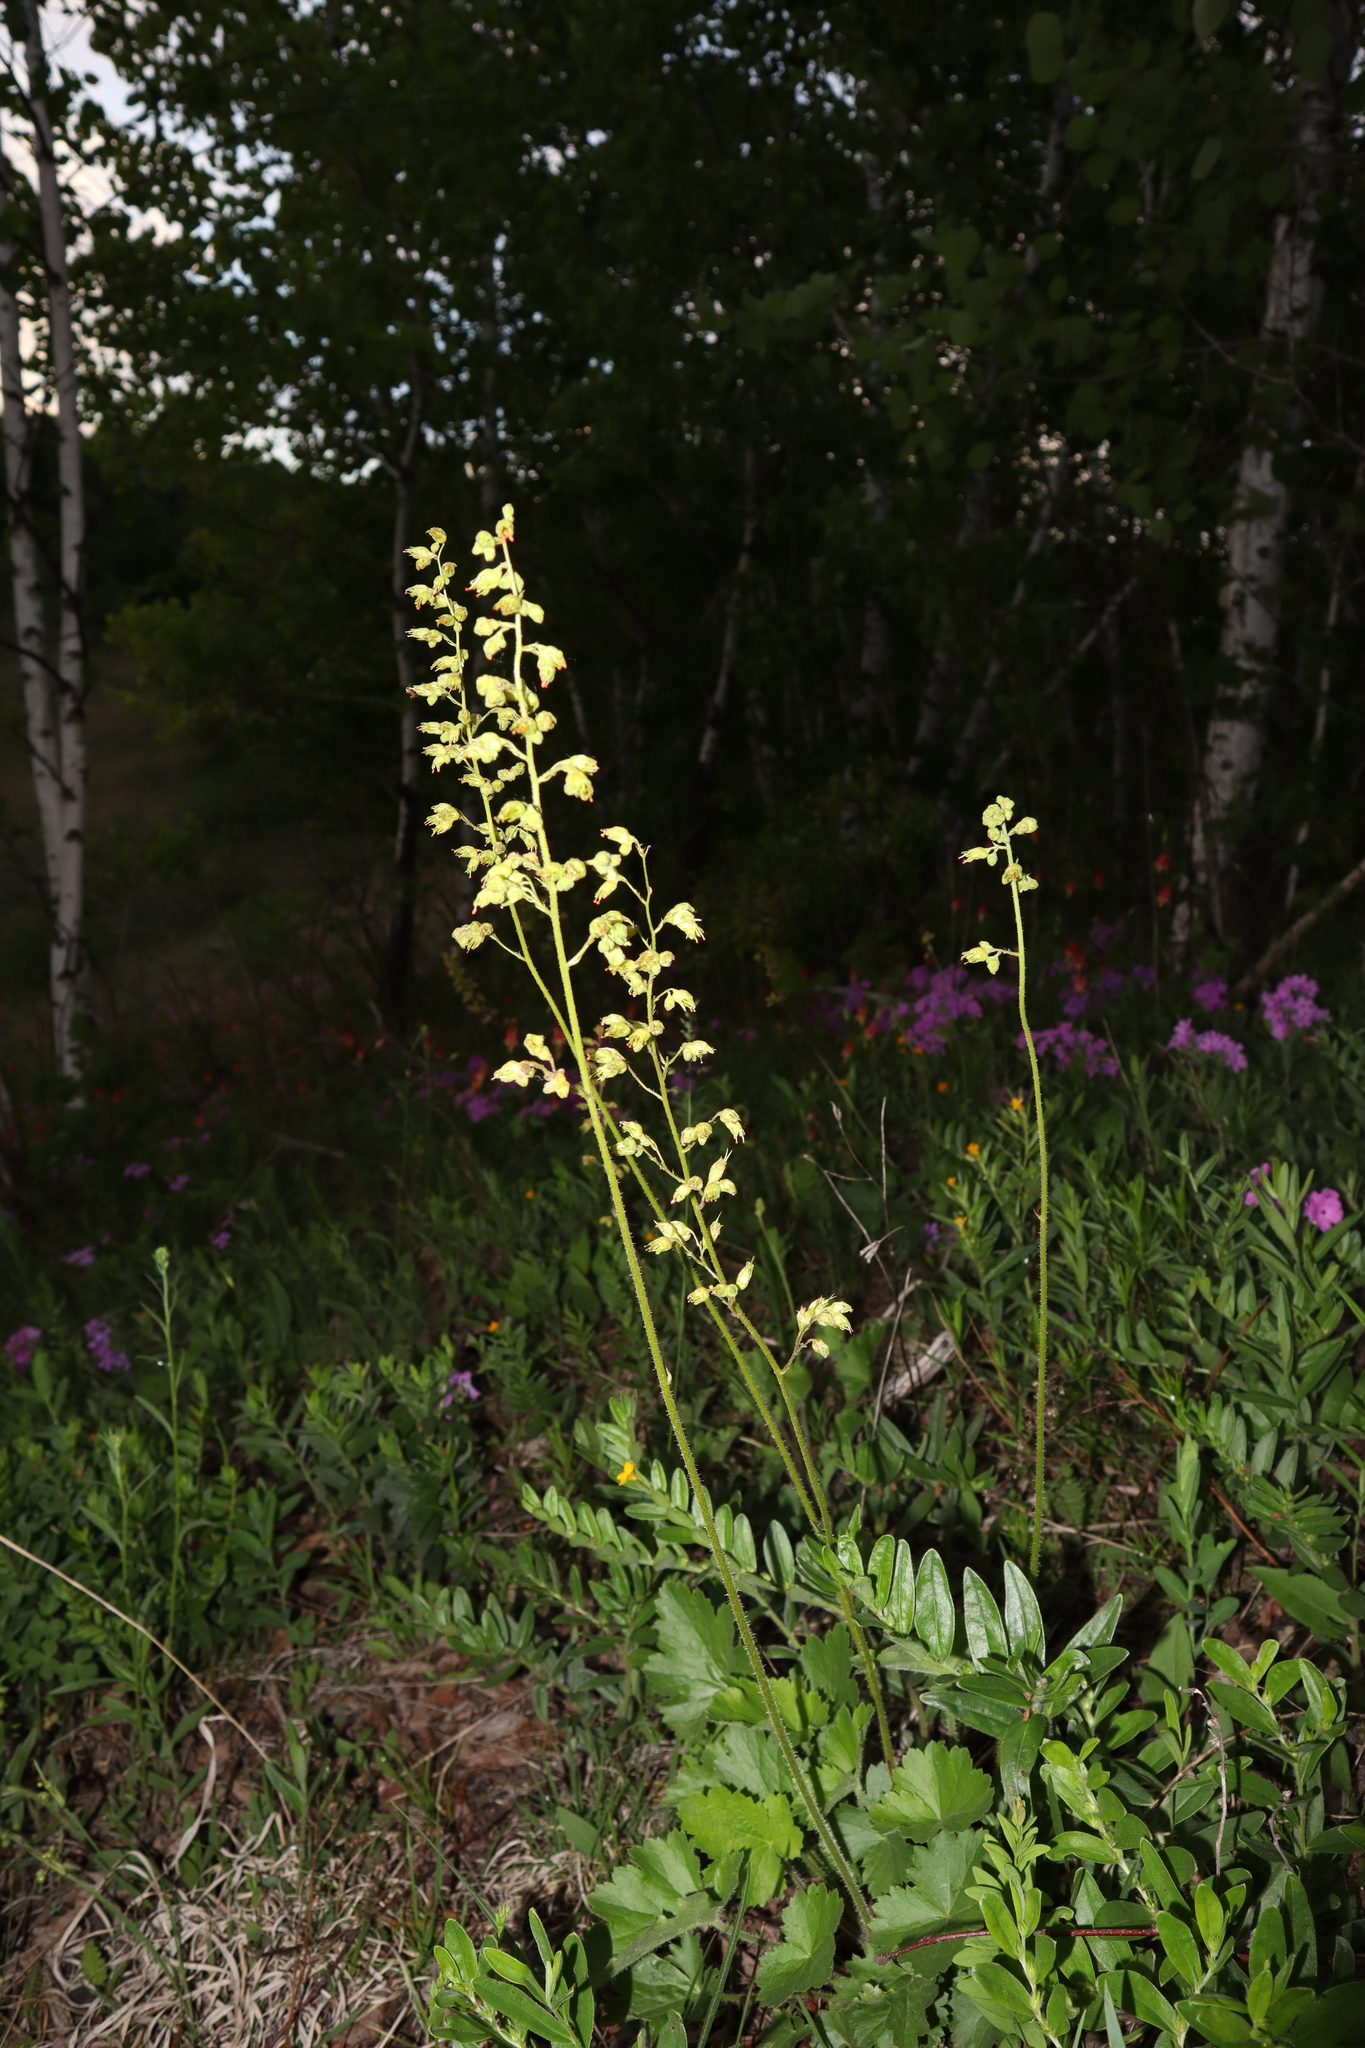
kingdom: Plantae
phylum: Tracheophyta
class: Magnoliopsida
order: Saxifragales
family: Saxifragaceae
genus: Heuchera
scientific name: Heuchera richardsonii
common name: Richardson's alumroot
